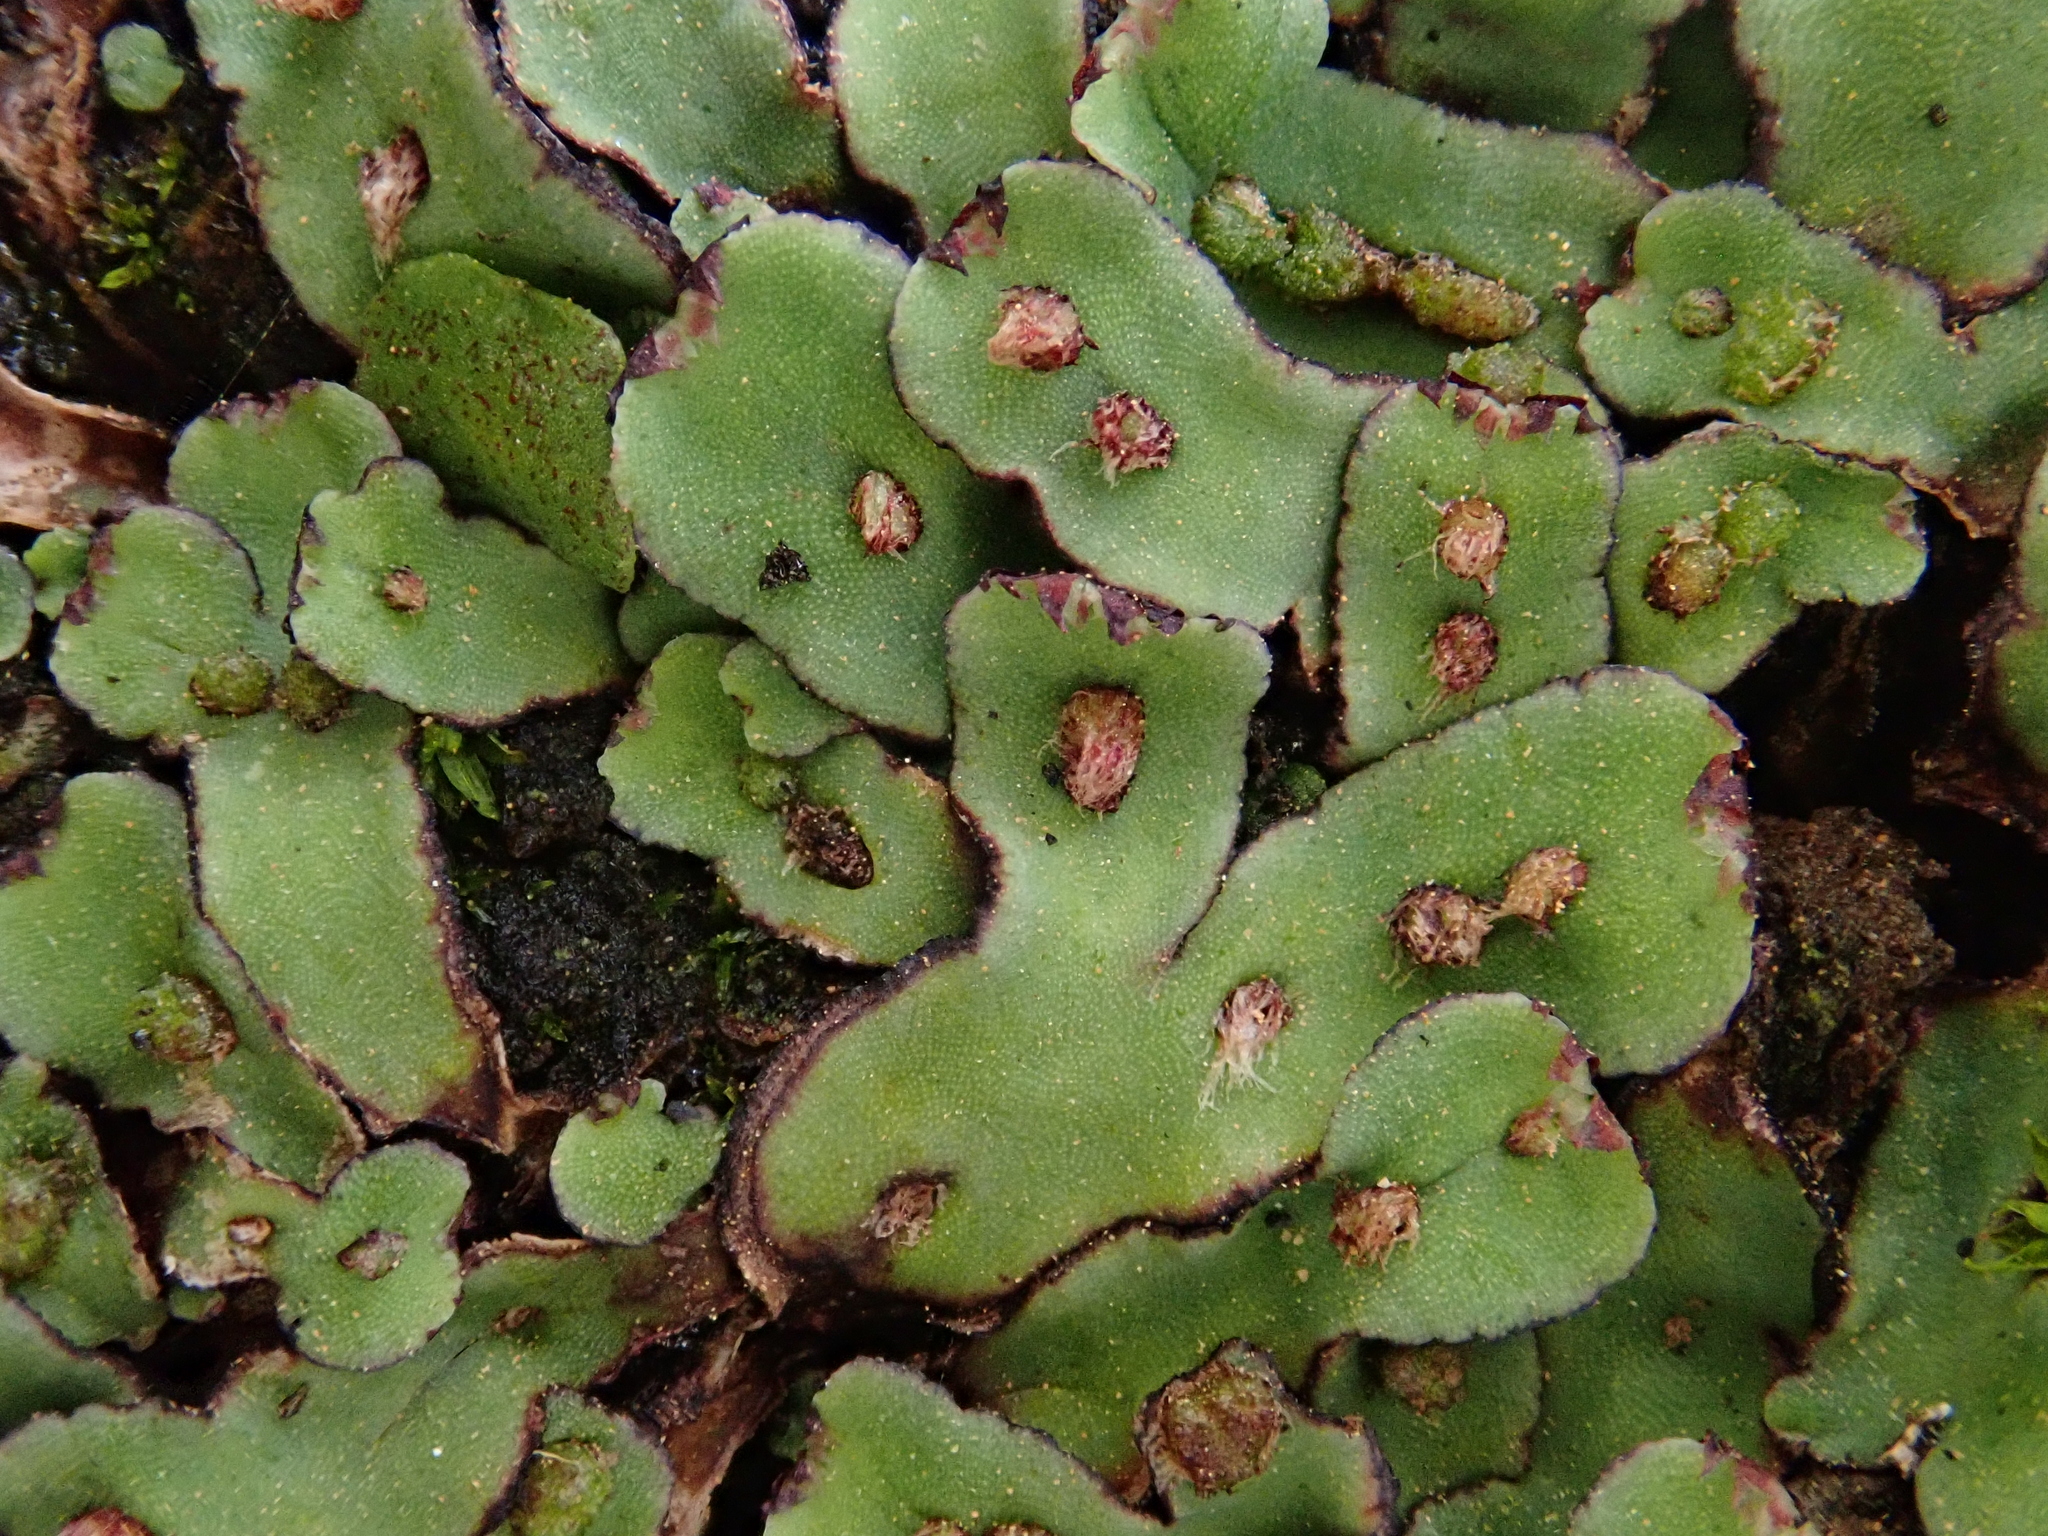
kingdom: Plantae
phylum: Marchantiophyta
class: Marchantiopsida
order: Marchantiales
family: Aytoniaceae
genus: Plagiochasma
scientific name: Plagiochasma rupestre
